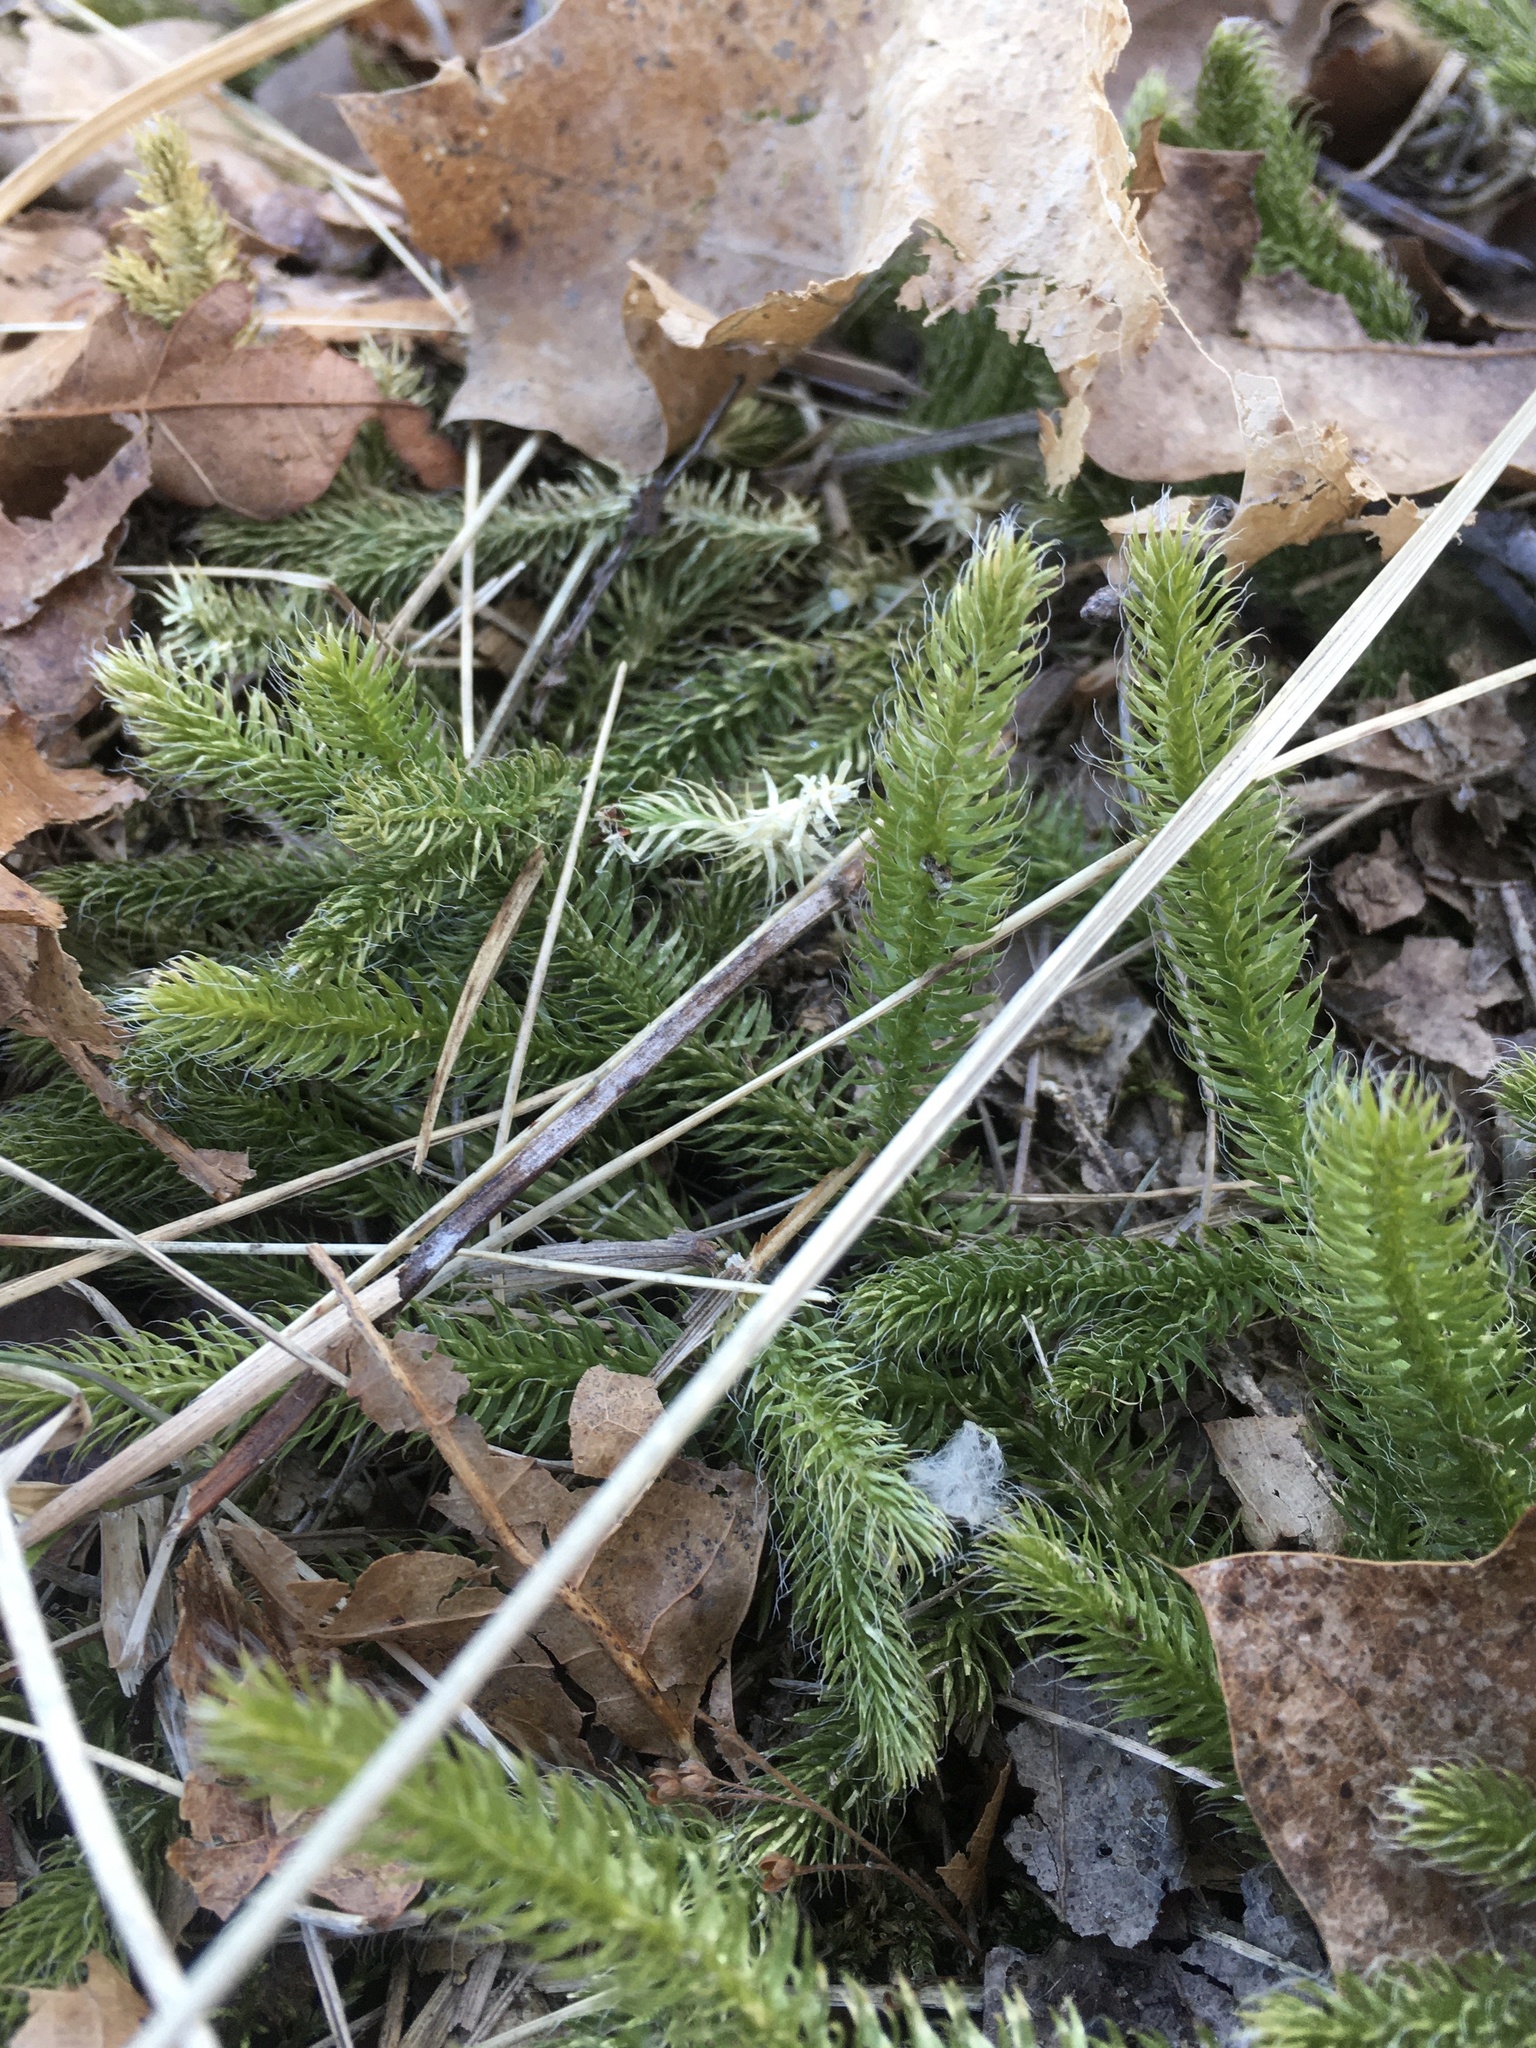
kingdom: Plantae
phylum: Tracheophyta
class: Lycopodiopsida
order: Lycopodiales
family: Lycopodiaceae
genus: Lycopodium
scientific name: Lycopodium clavatum
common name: Stag's-horn clubmoss
